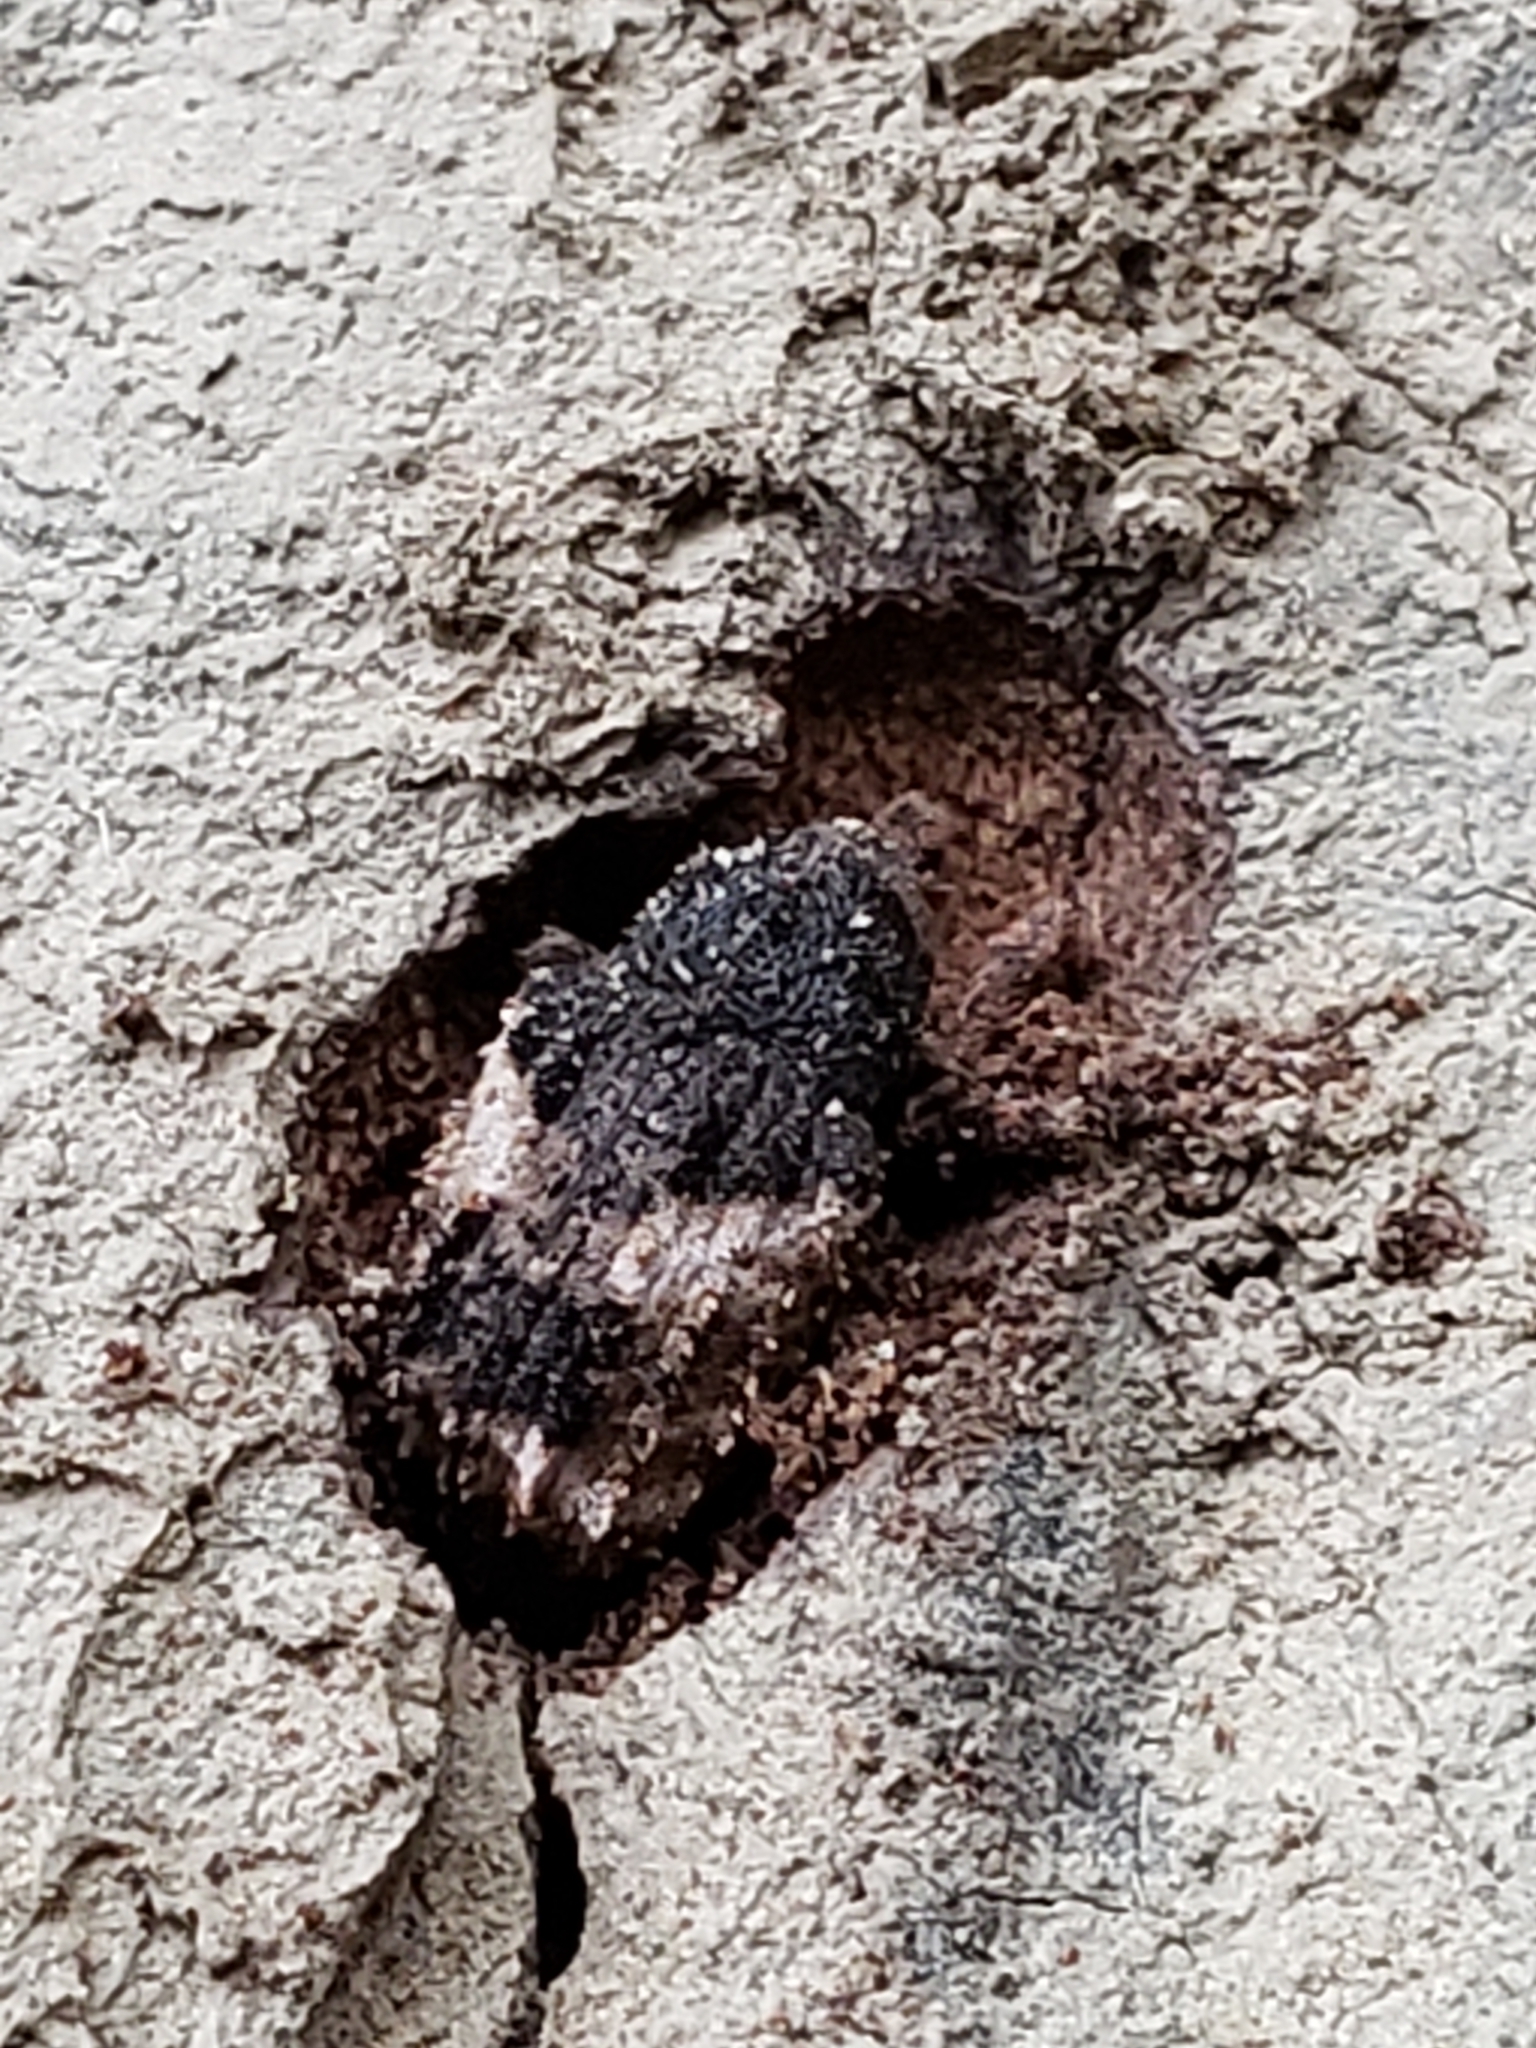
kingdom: Animalia
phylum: Arthropoda
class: Insecta
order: Coleoptera
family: Curculionidae
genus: Cryptorhynchus
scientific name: Cryptorhynchus fuscatus
